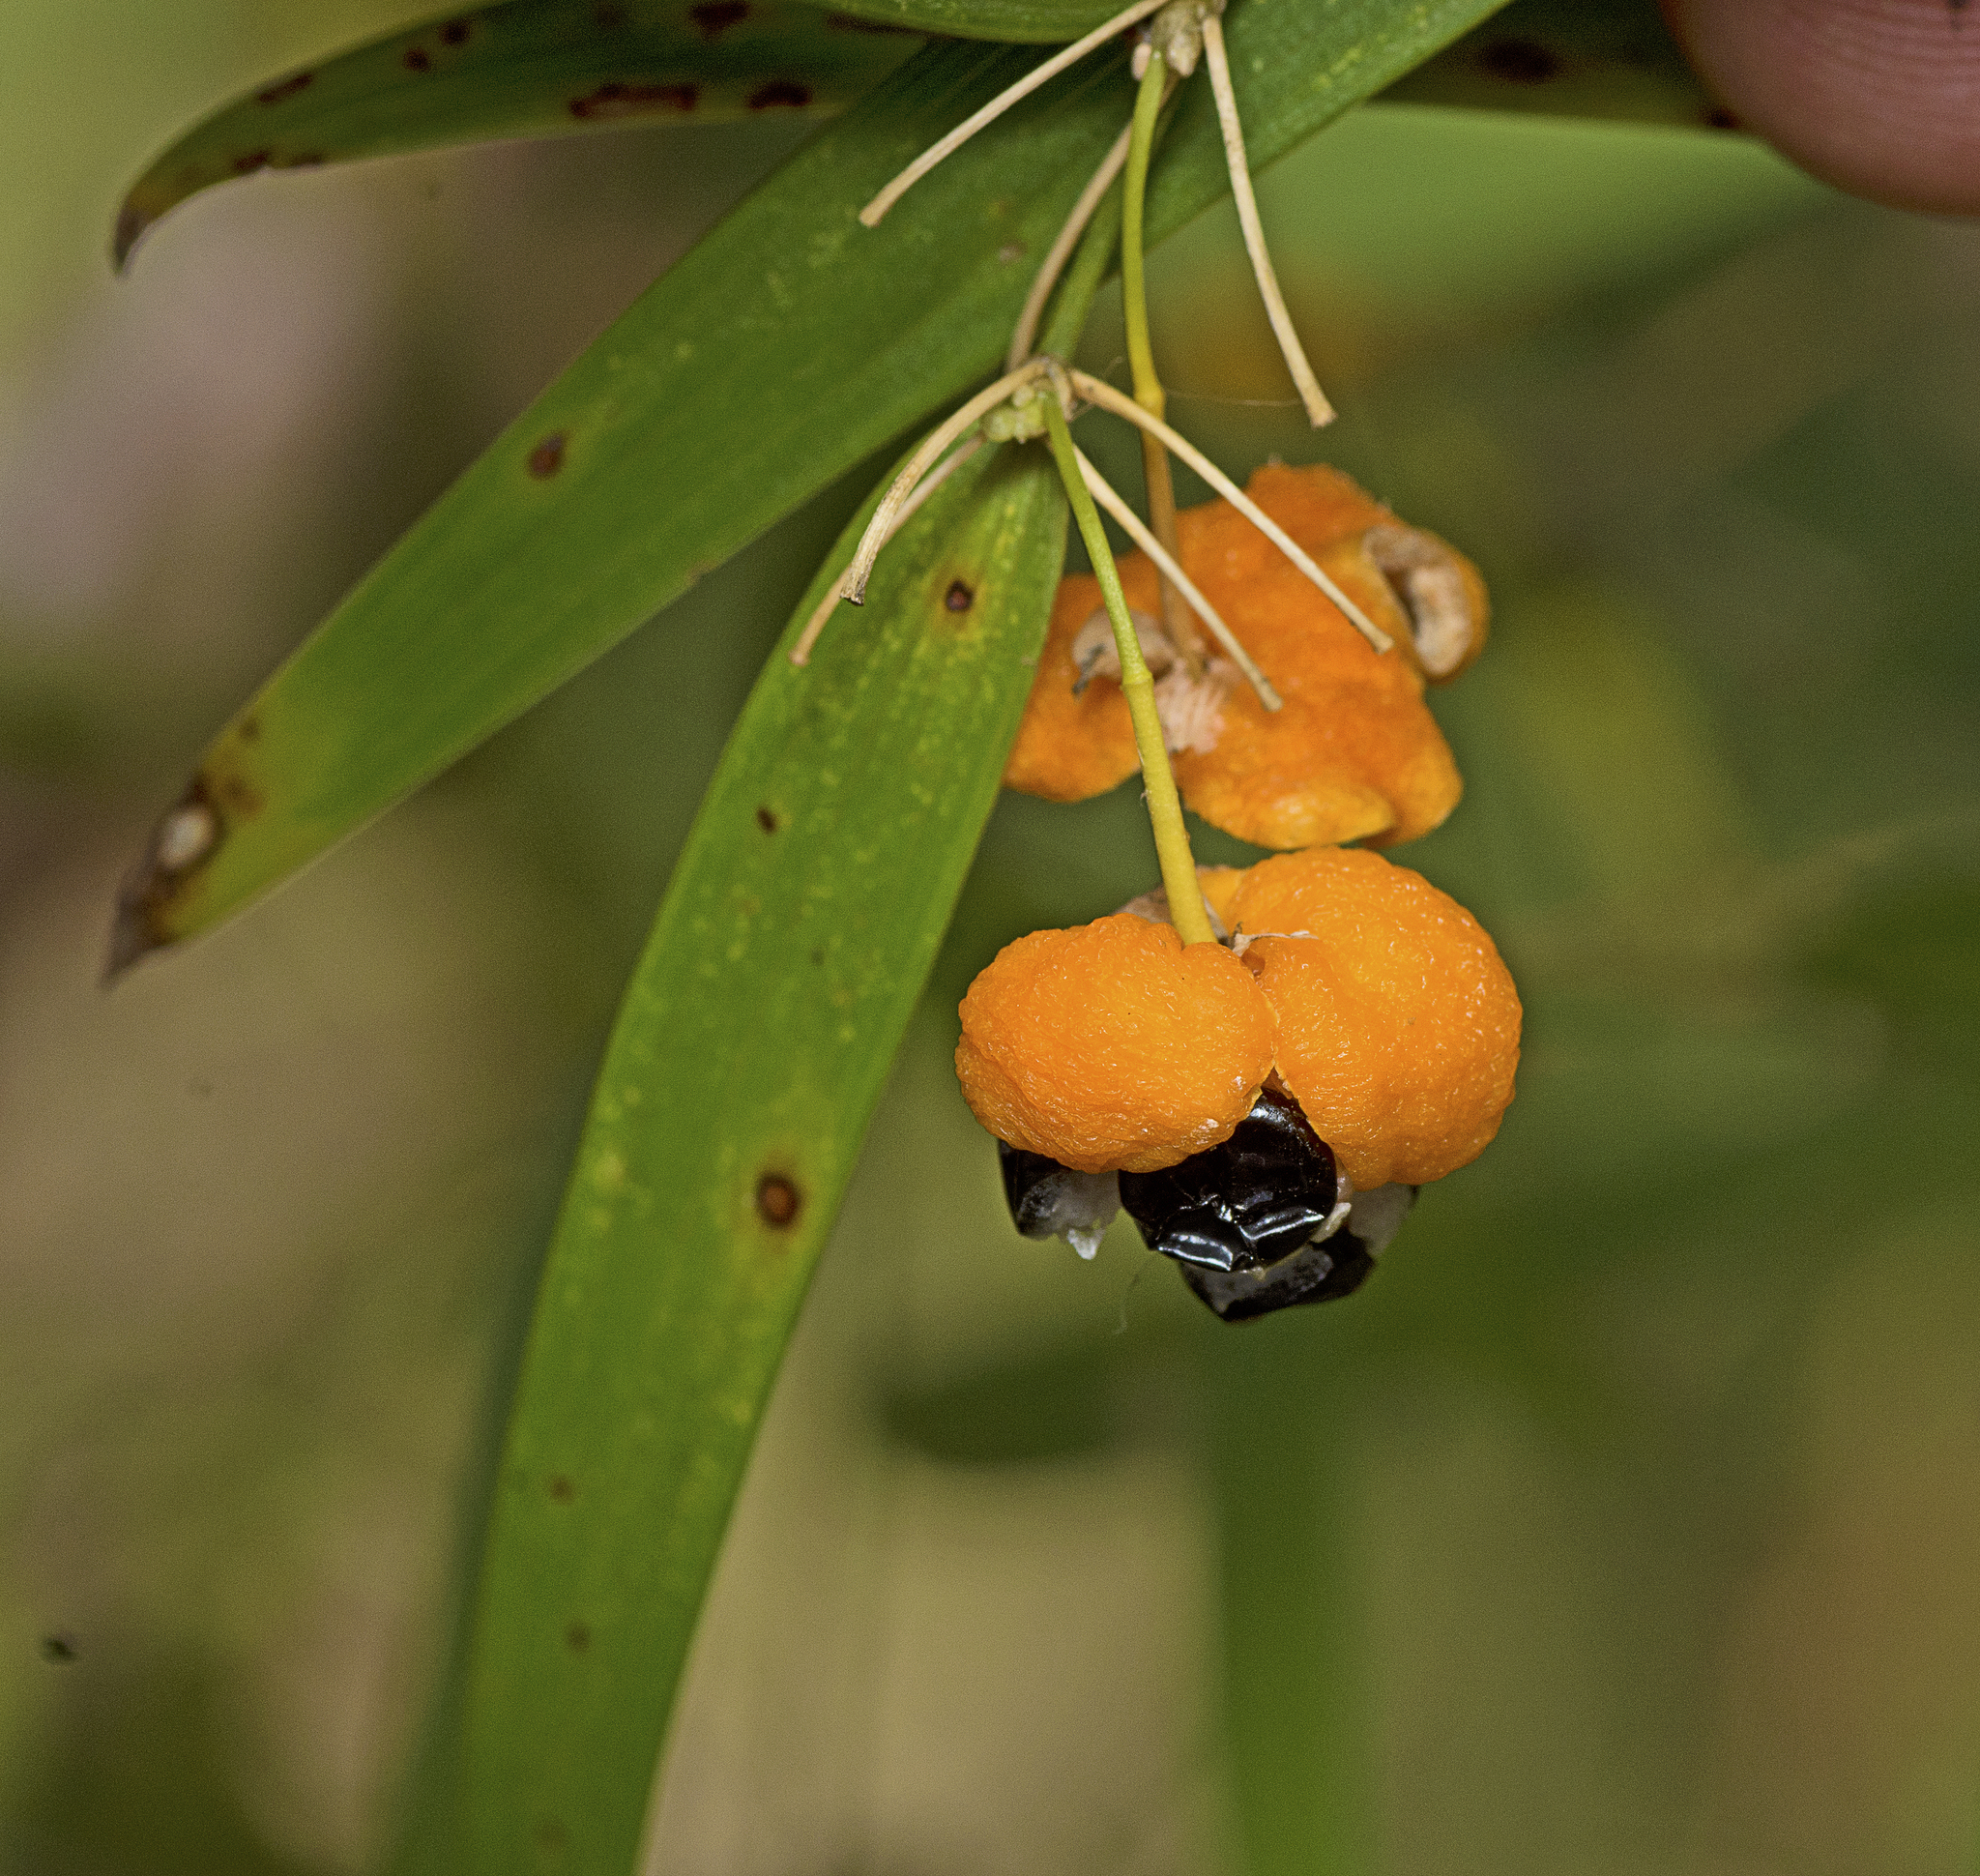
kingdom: Plantae
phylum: Tracheophyta
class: Liliopsida
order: Asparagales
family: Asparagaceae
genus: Eustrephus
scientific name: Eustrephus latifolius
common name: Orangevine
